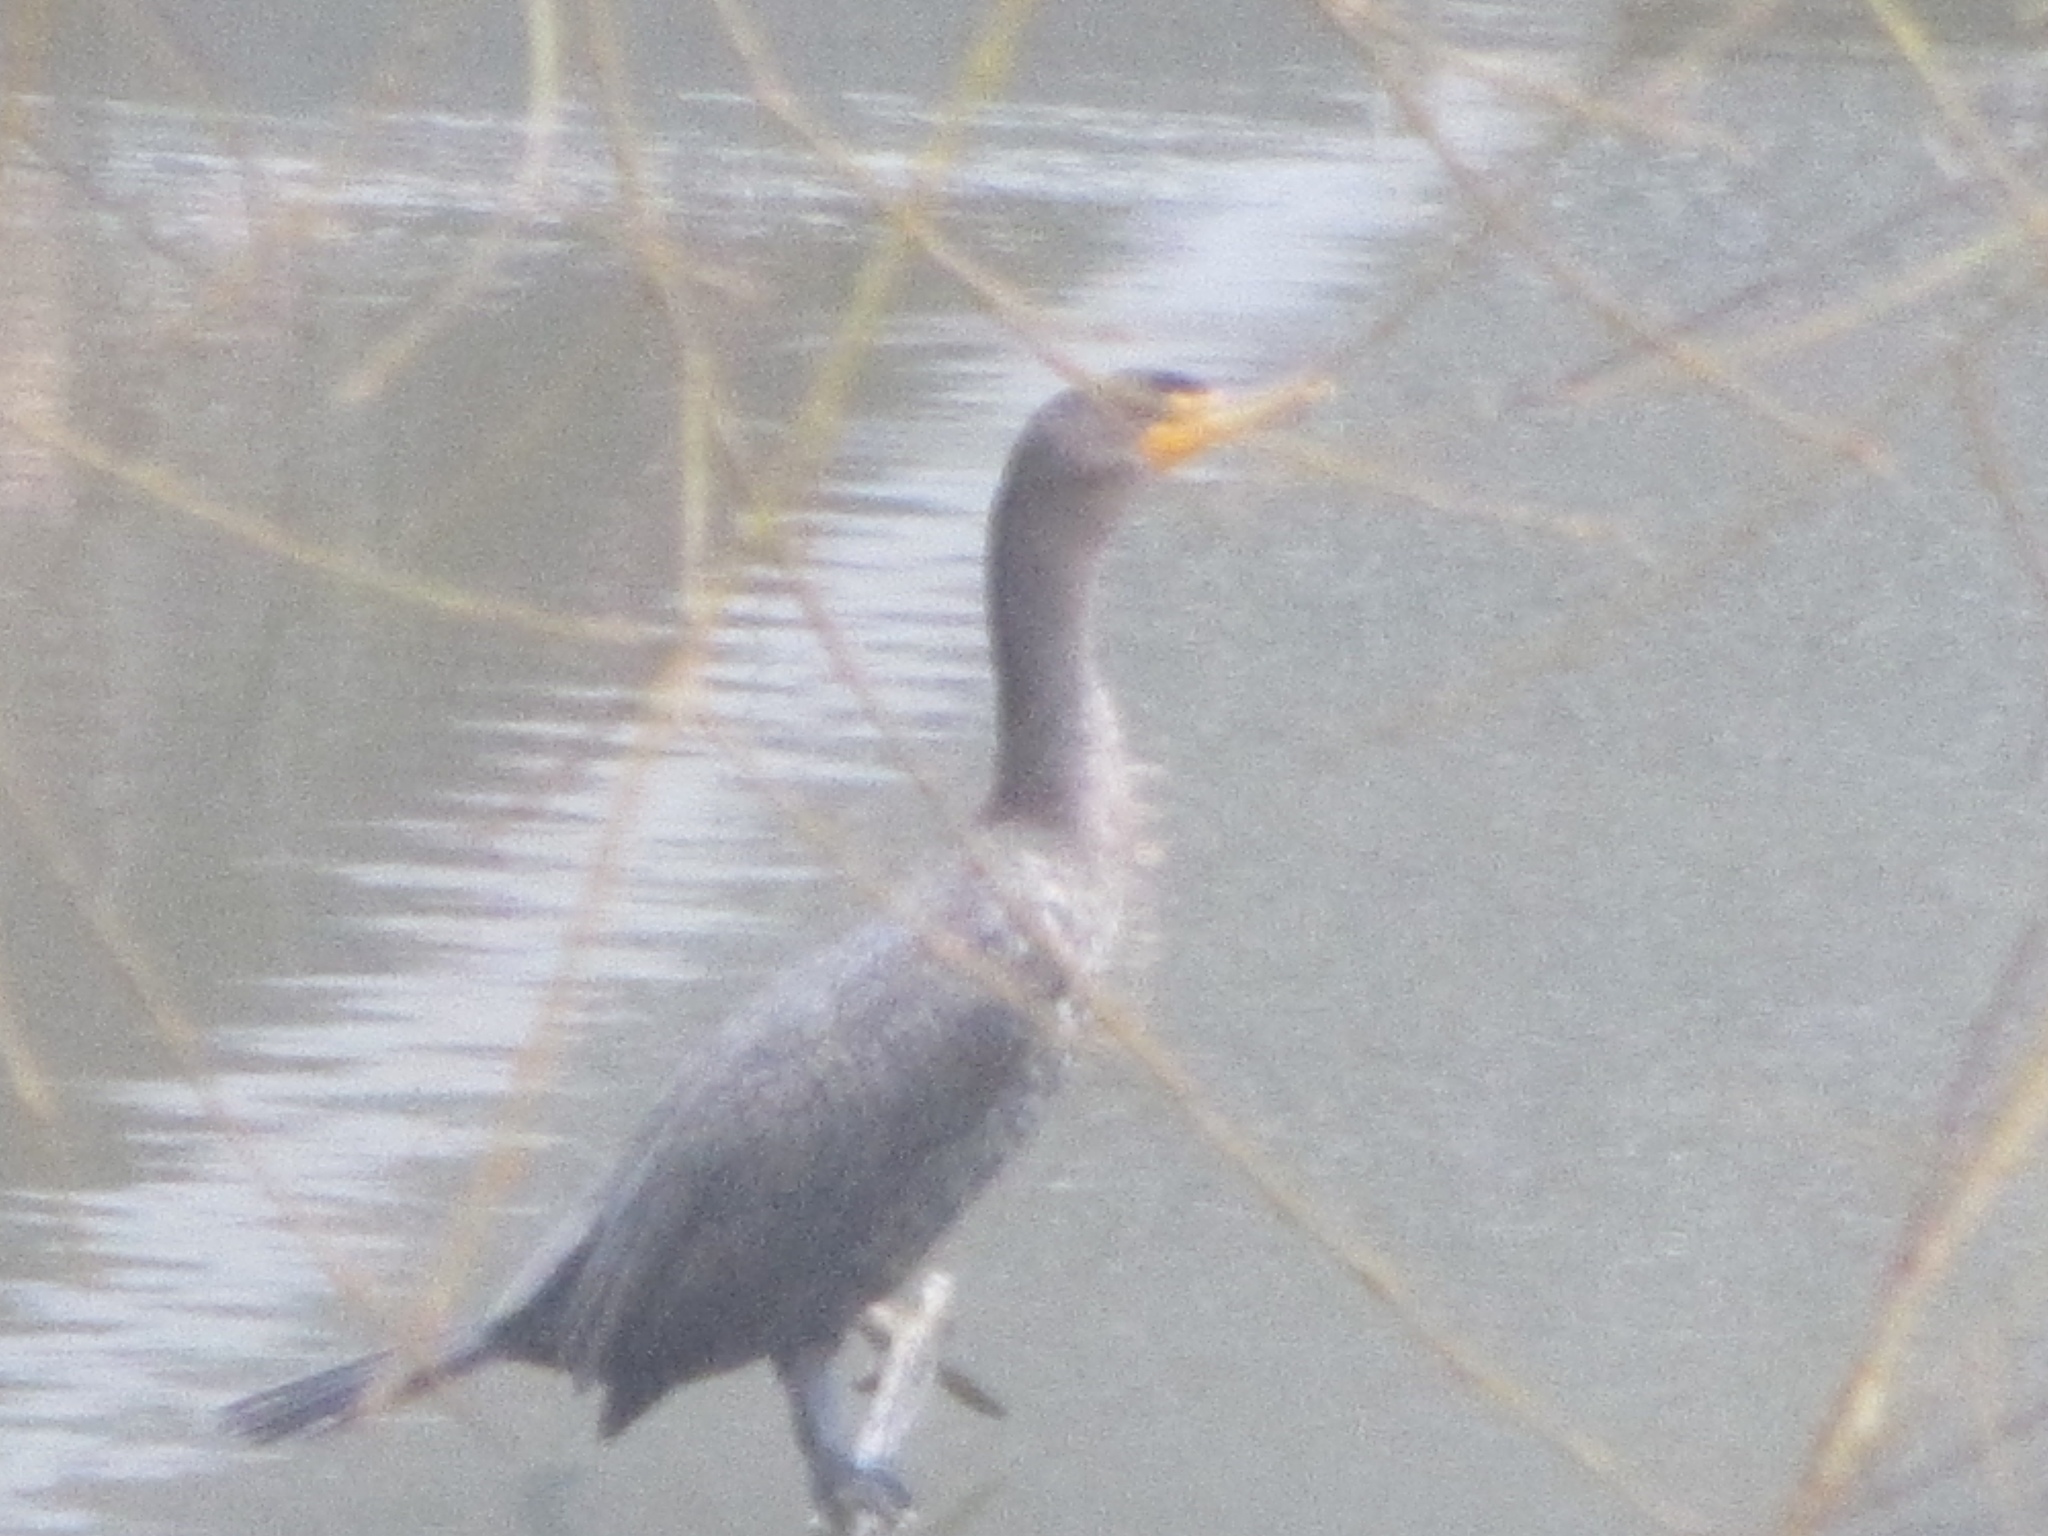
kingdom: Animalia
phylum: Chordata
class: Aves
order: Suliformes
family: Phalacrocoracidae
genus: Phalacrocorax
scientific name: Phalacrocorax auritus
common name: Double-crested cormorant
